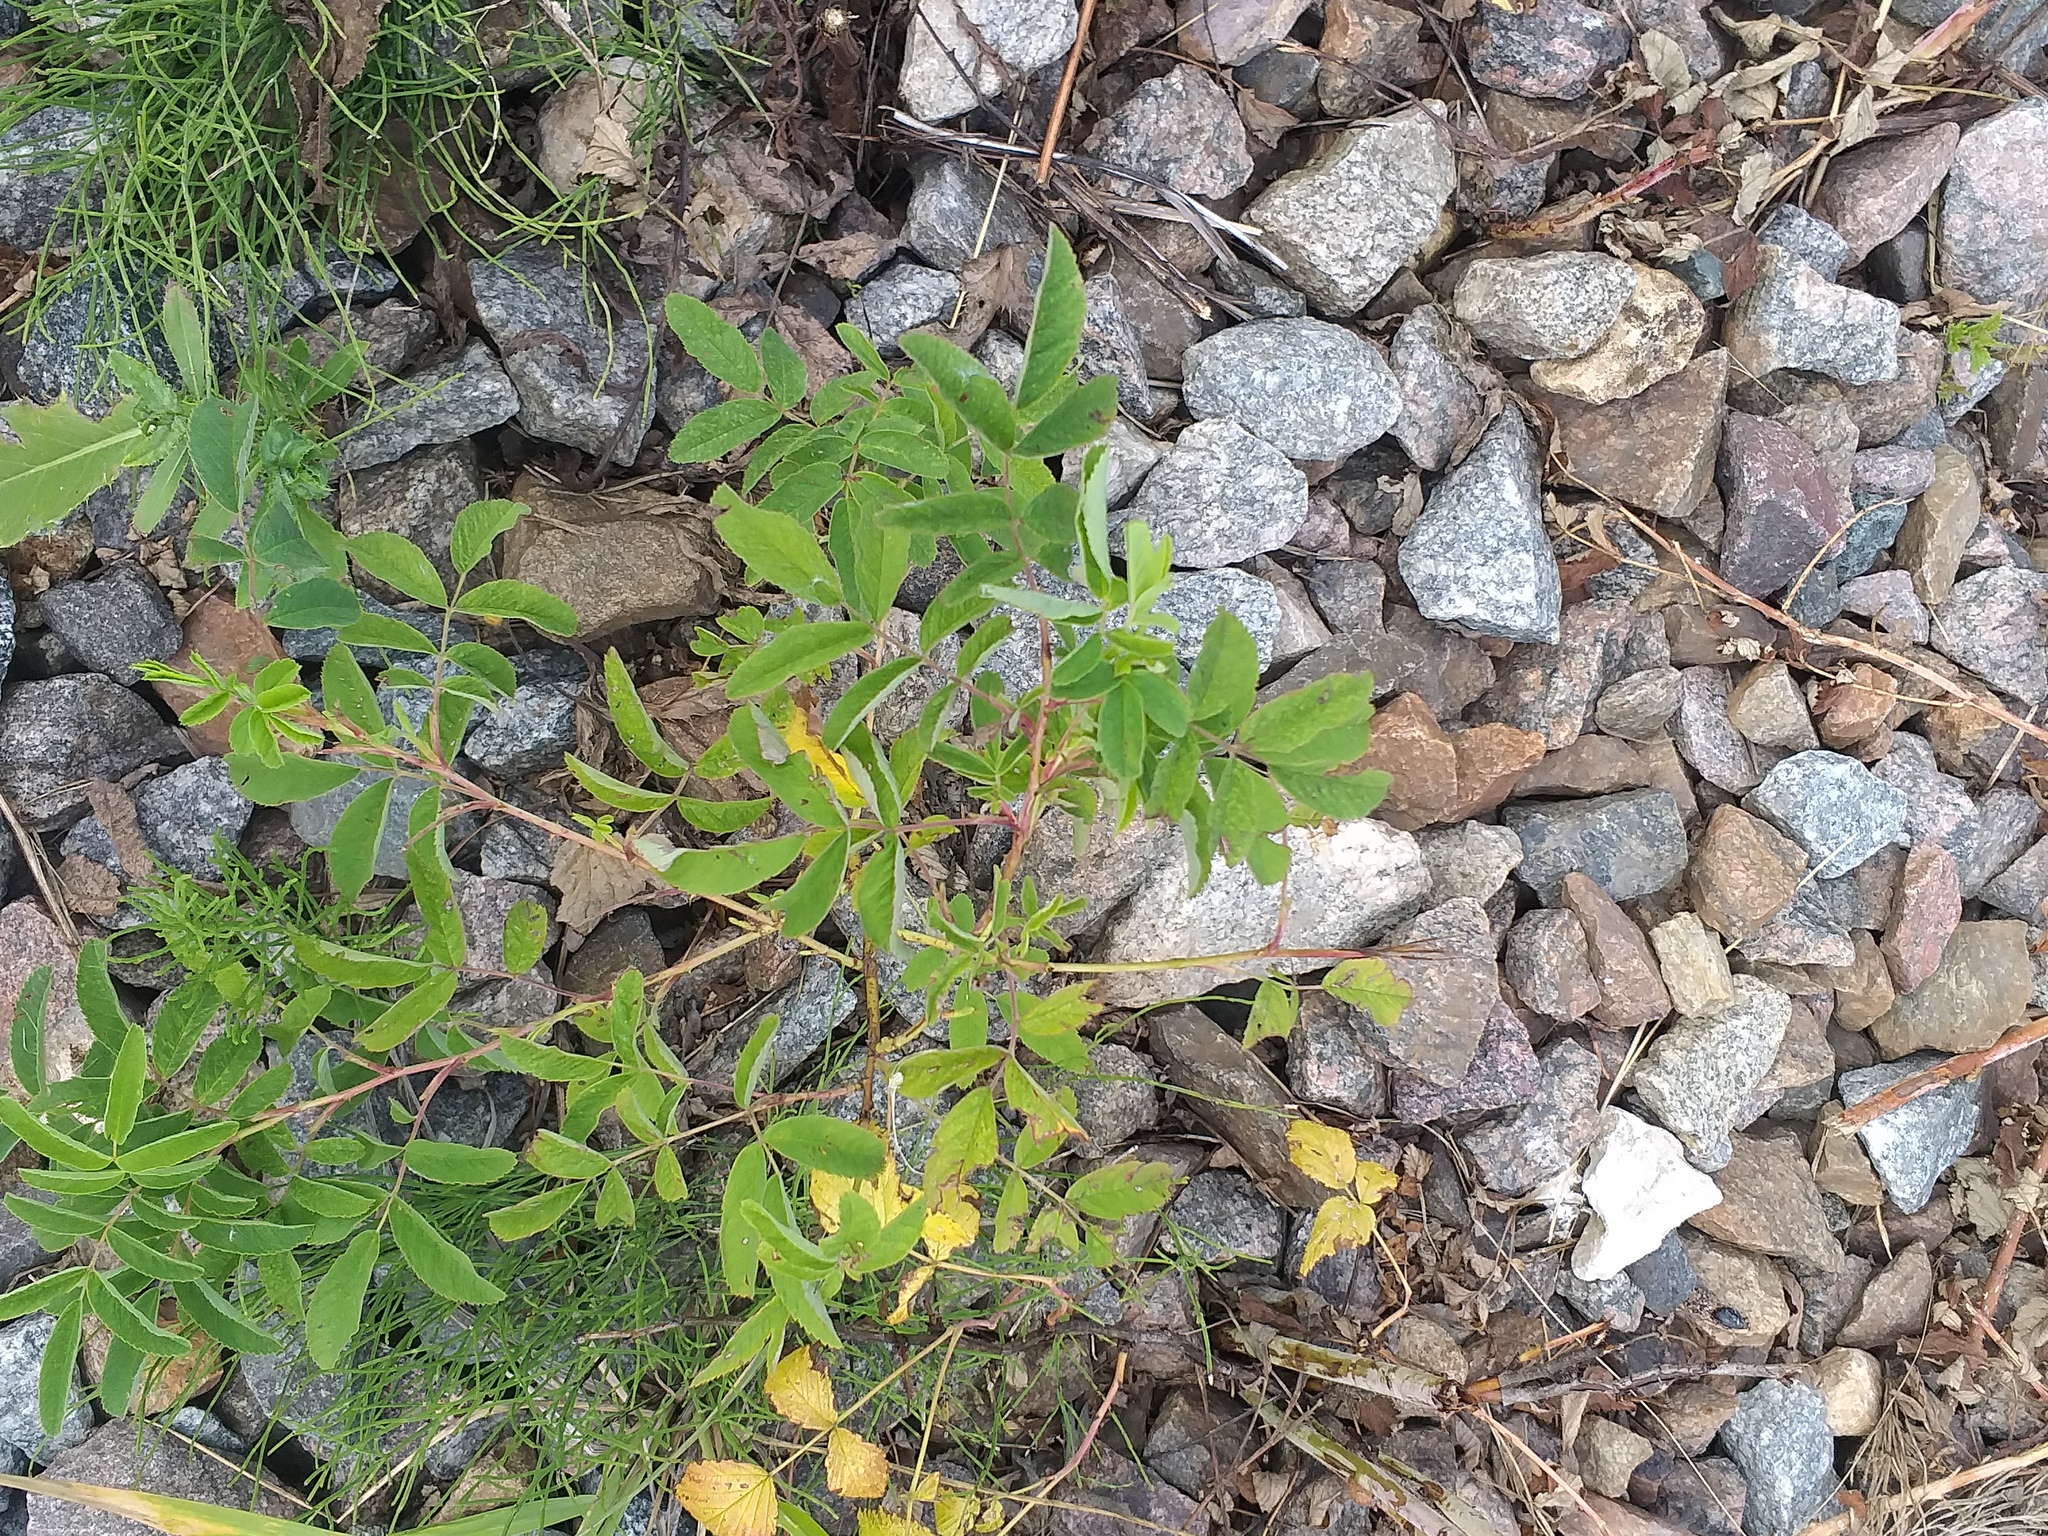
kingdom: Plantae
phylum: Tracheophyta
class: Magnoliopsida
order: Rosales
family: Rosaceae
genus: Rosa
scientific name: Rosa majalis
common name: Cinnamon rose
